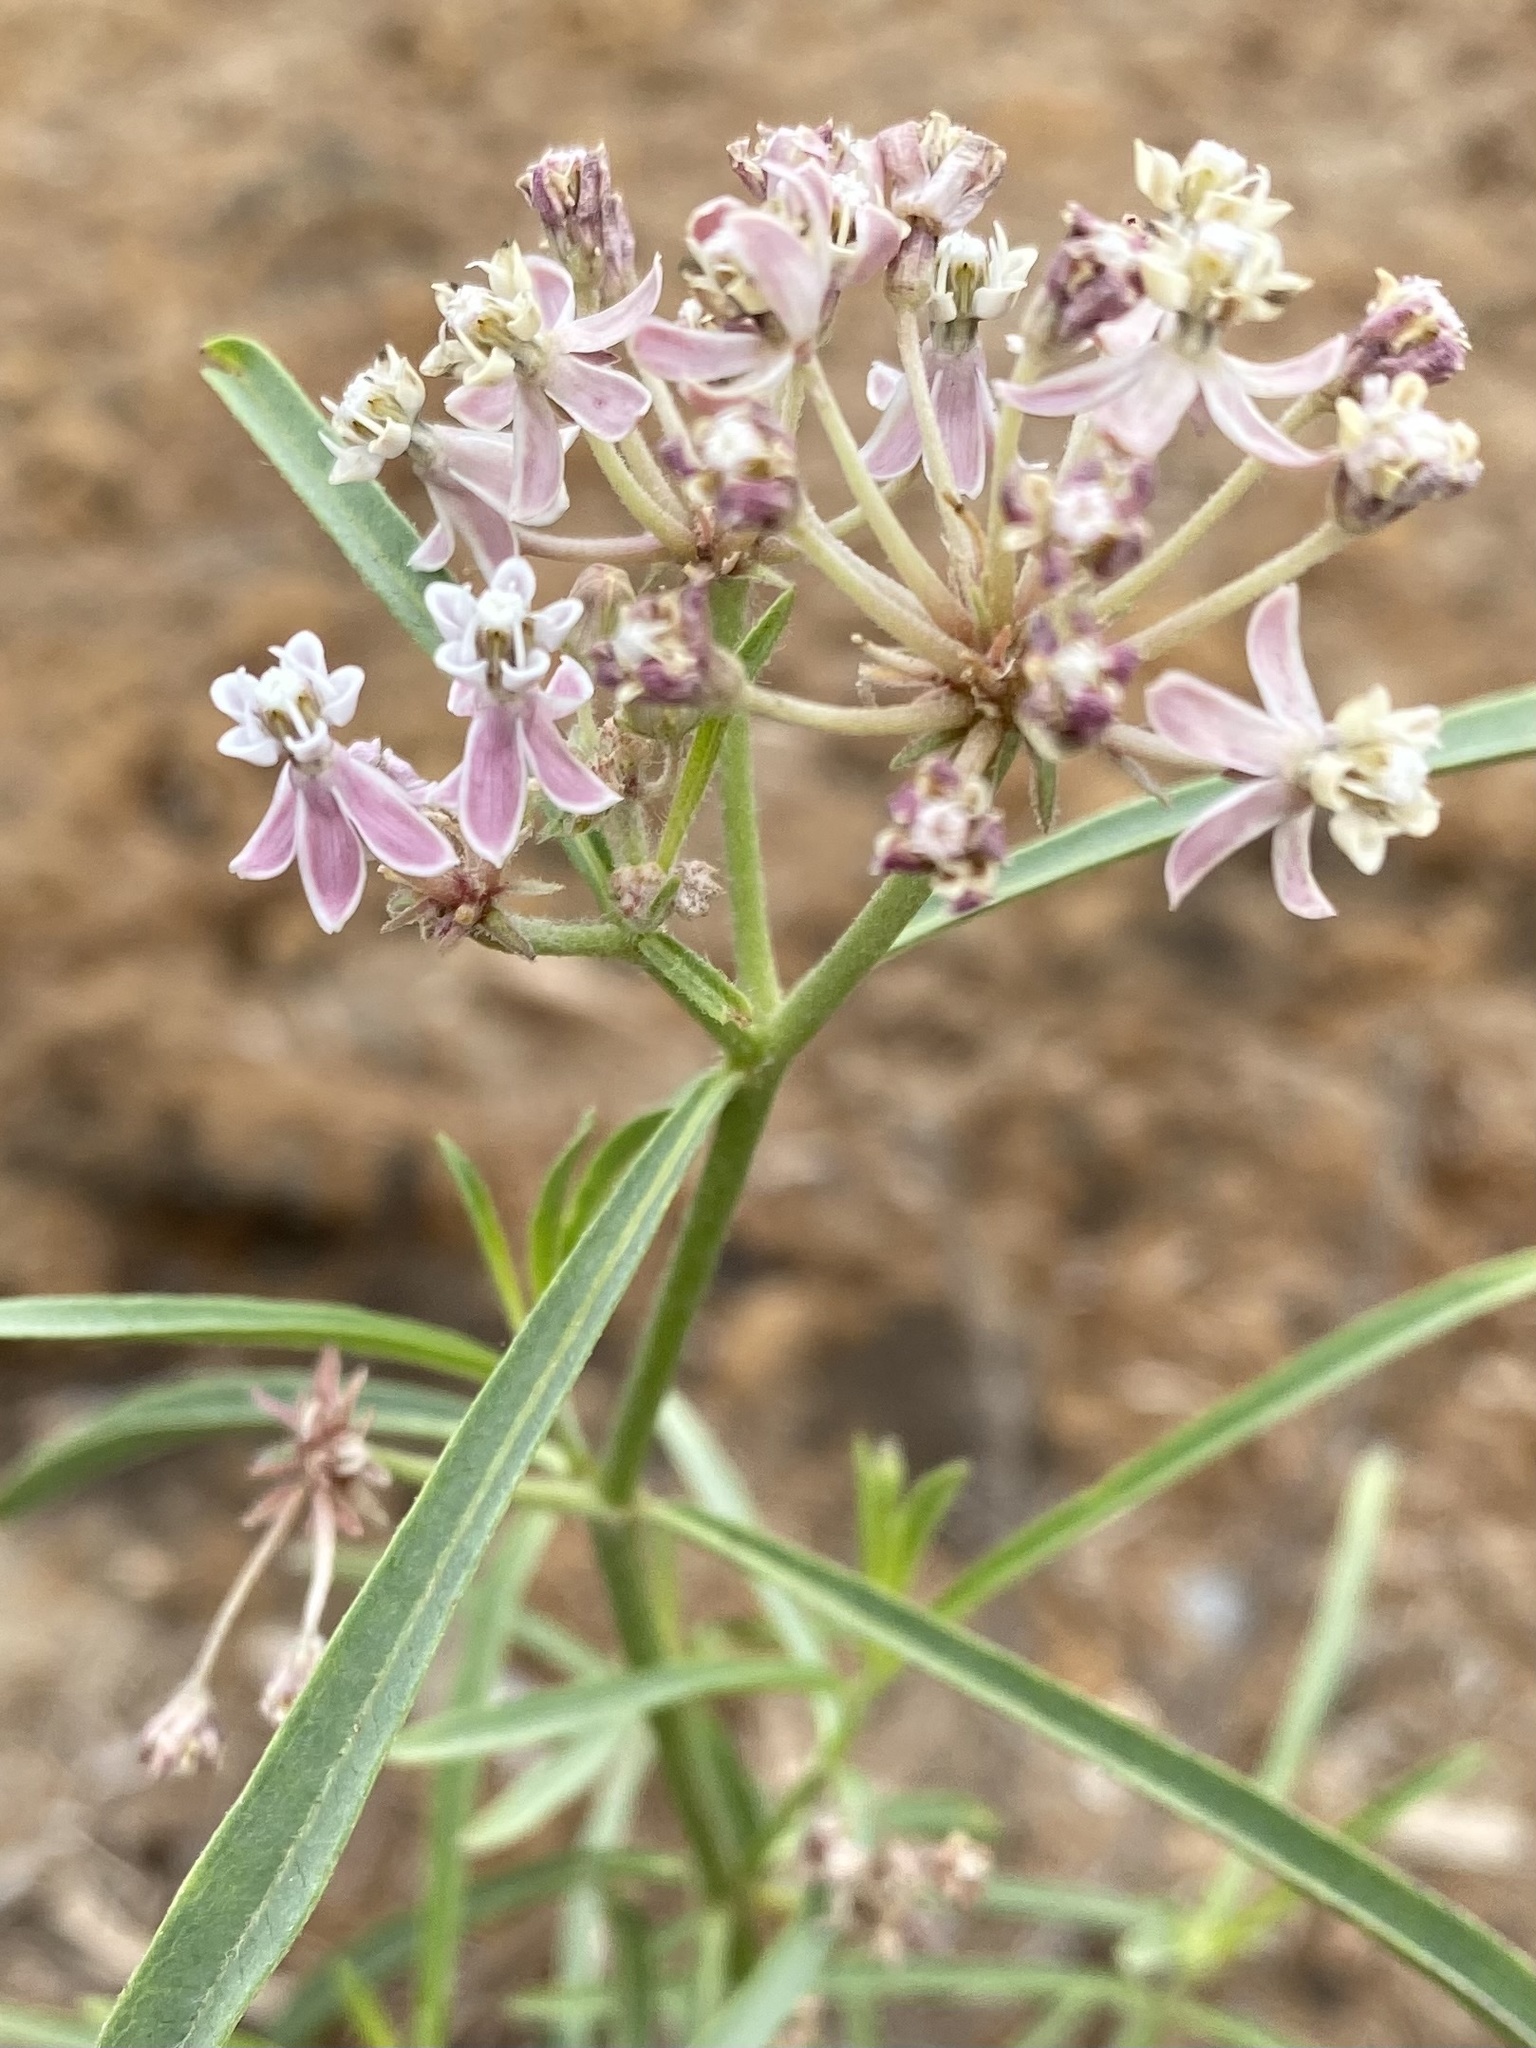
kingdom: Plantae
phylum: Tracheophyta
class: Magnoliopsida
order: Gentianales
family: Apocynaceae
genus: Asclepias
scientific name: Asclepias fascicularis
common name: Mexican milkweed
